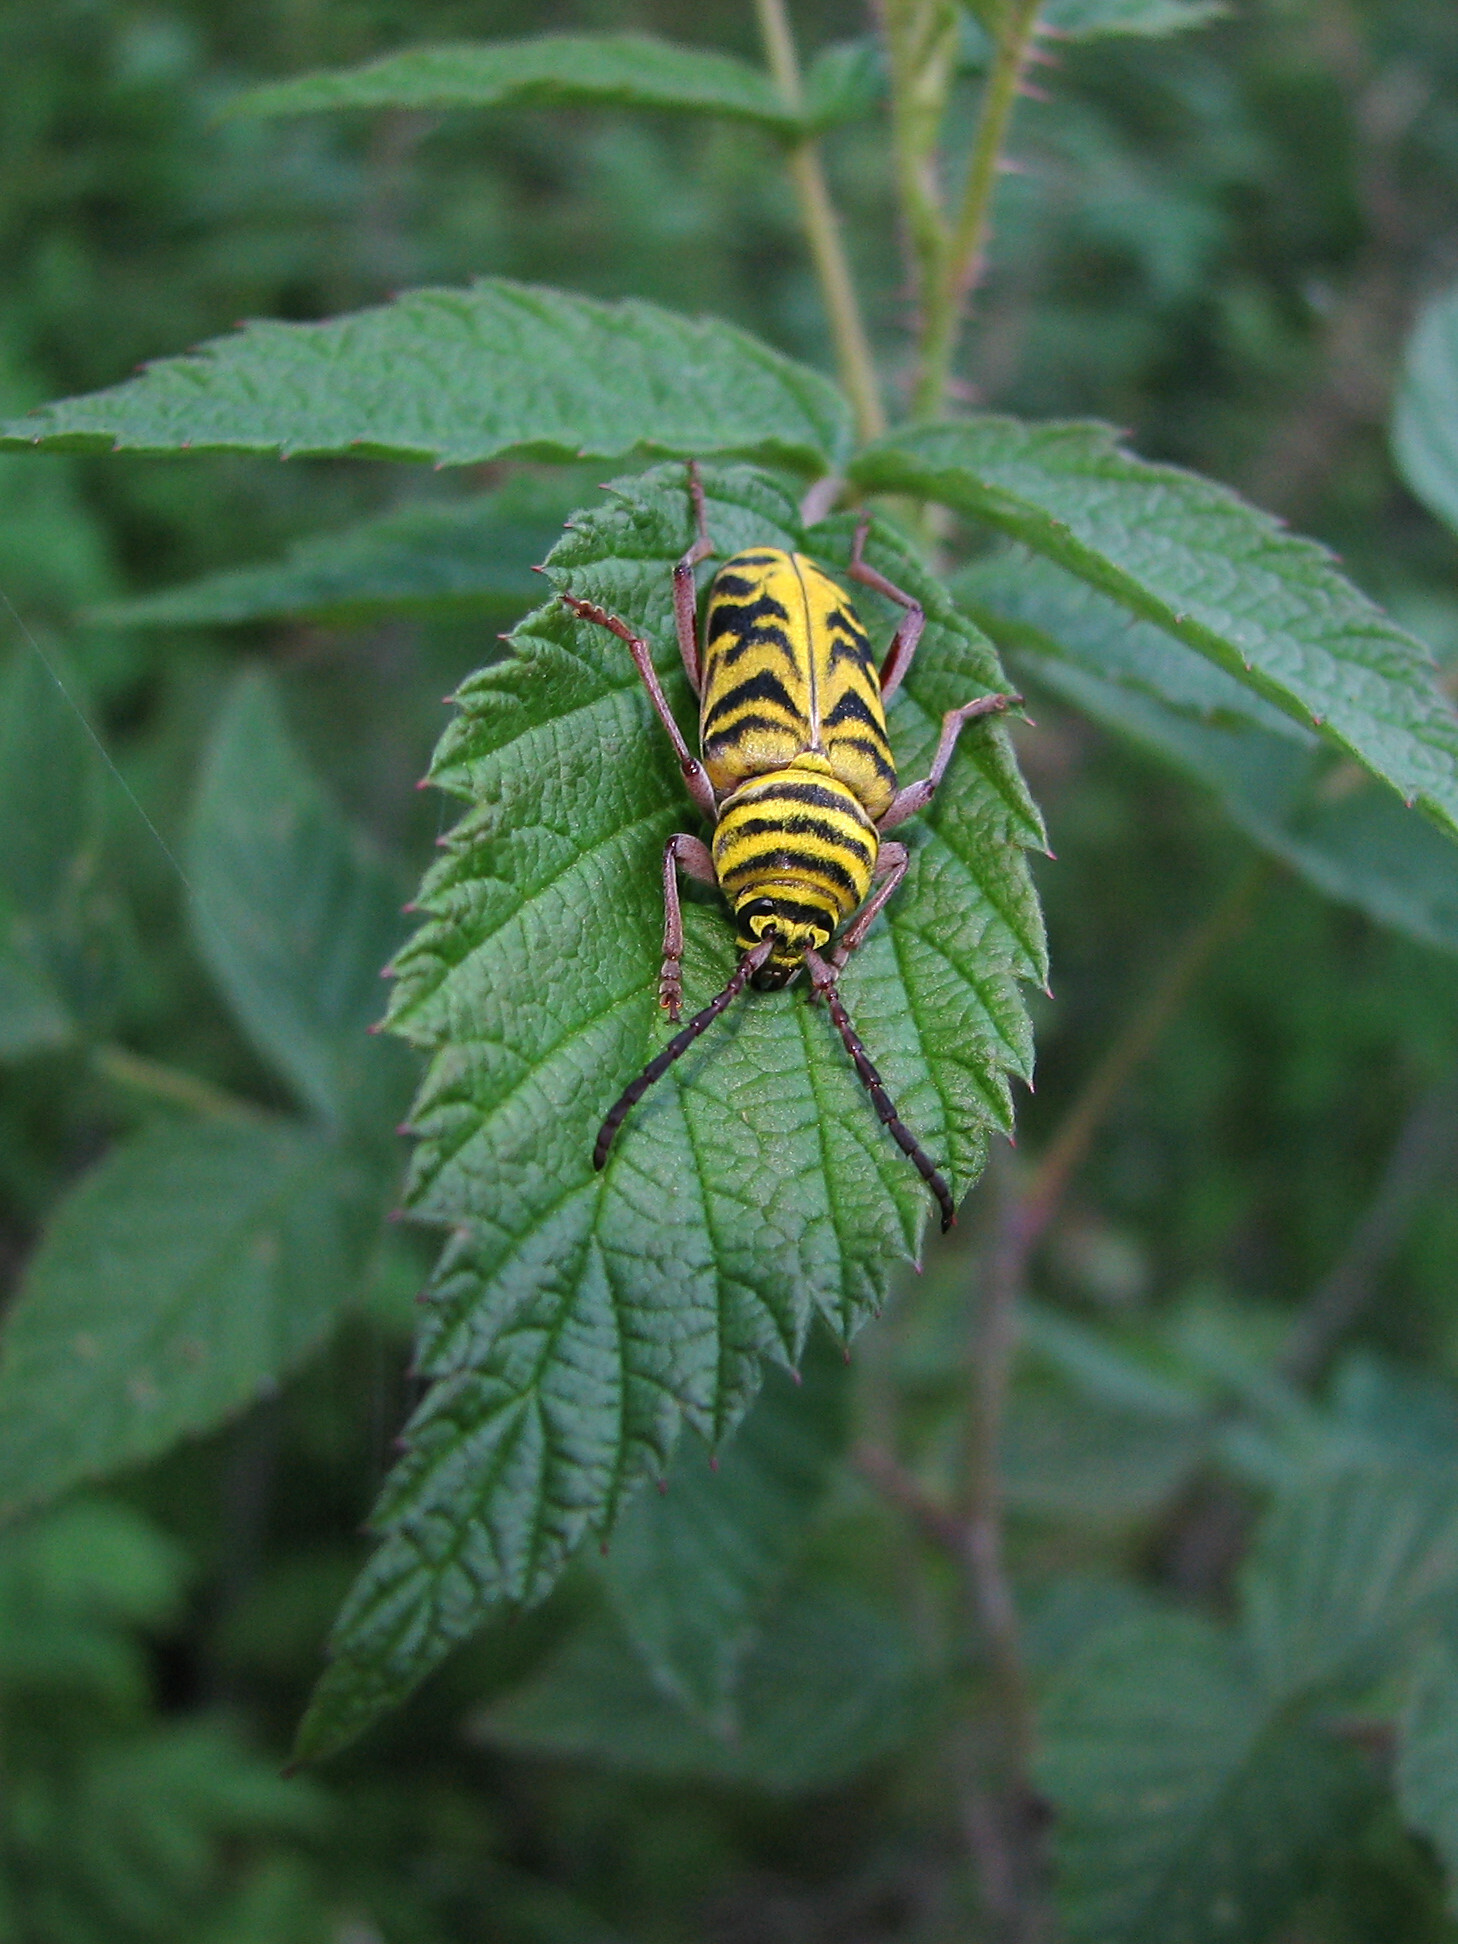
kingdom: Animalia
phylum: Arthropoda
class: Insecta
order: Coleoptera
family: Cerambycidae
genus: Megacyllene
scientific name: Megacyllene snowi
